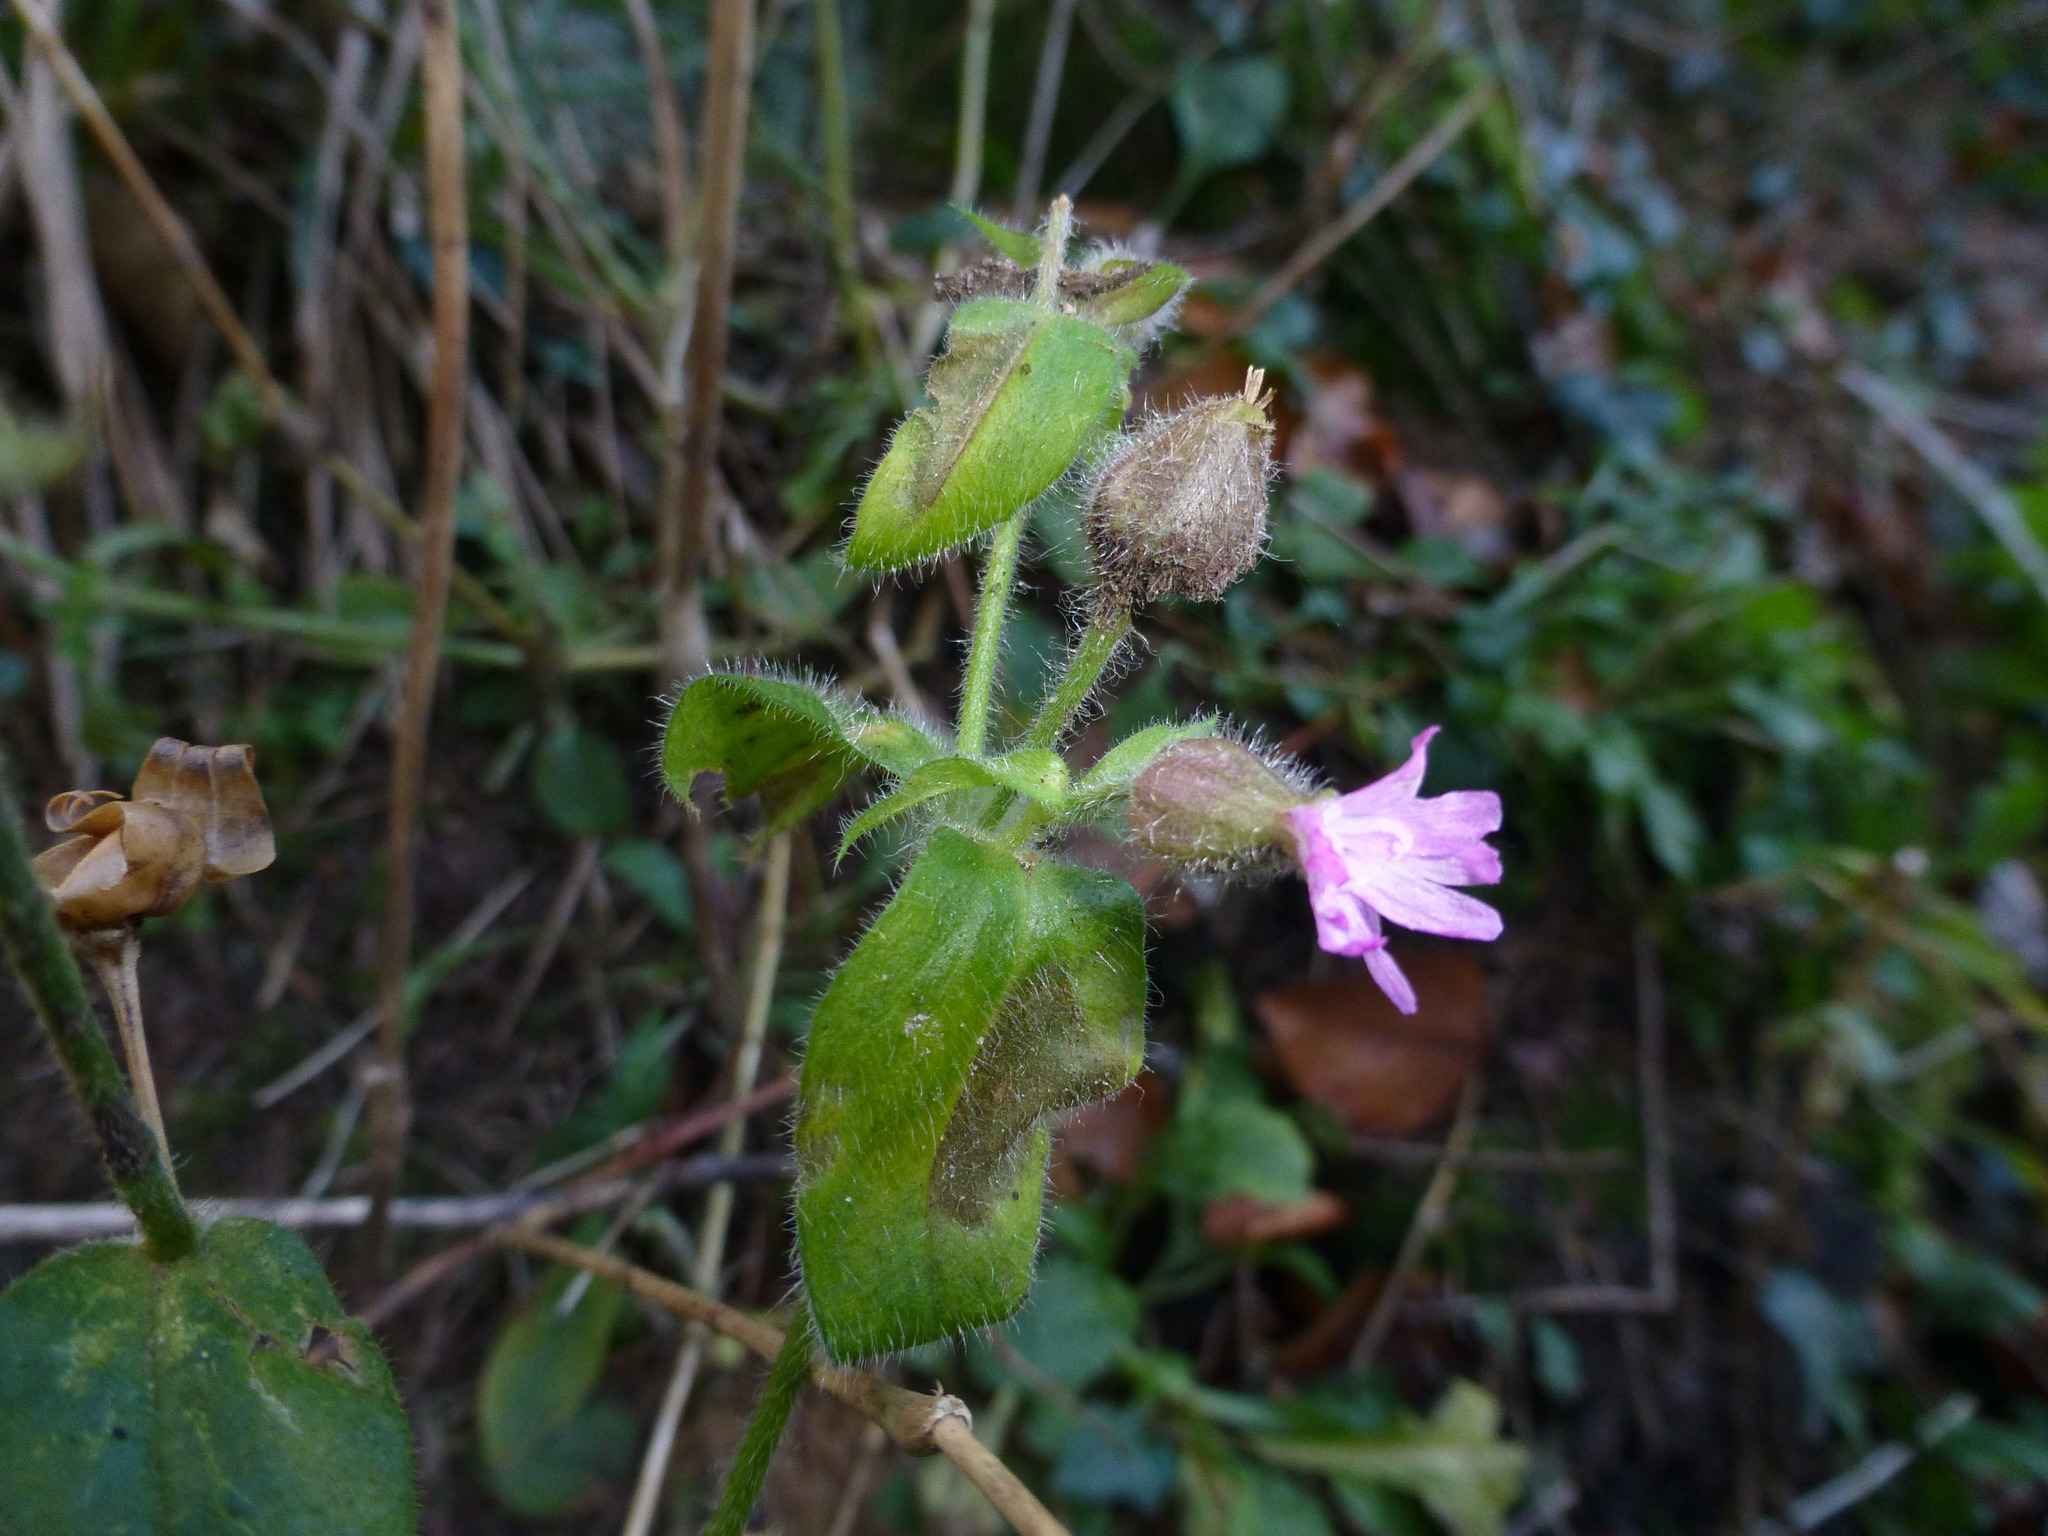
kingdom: Plantae
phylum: Tracheophyta
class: Magnoliopsida
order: Caryophyllales
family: Caryophyllaceae
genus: Silene
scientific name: Silene dioica
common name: Red campion
